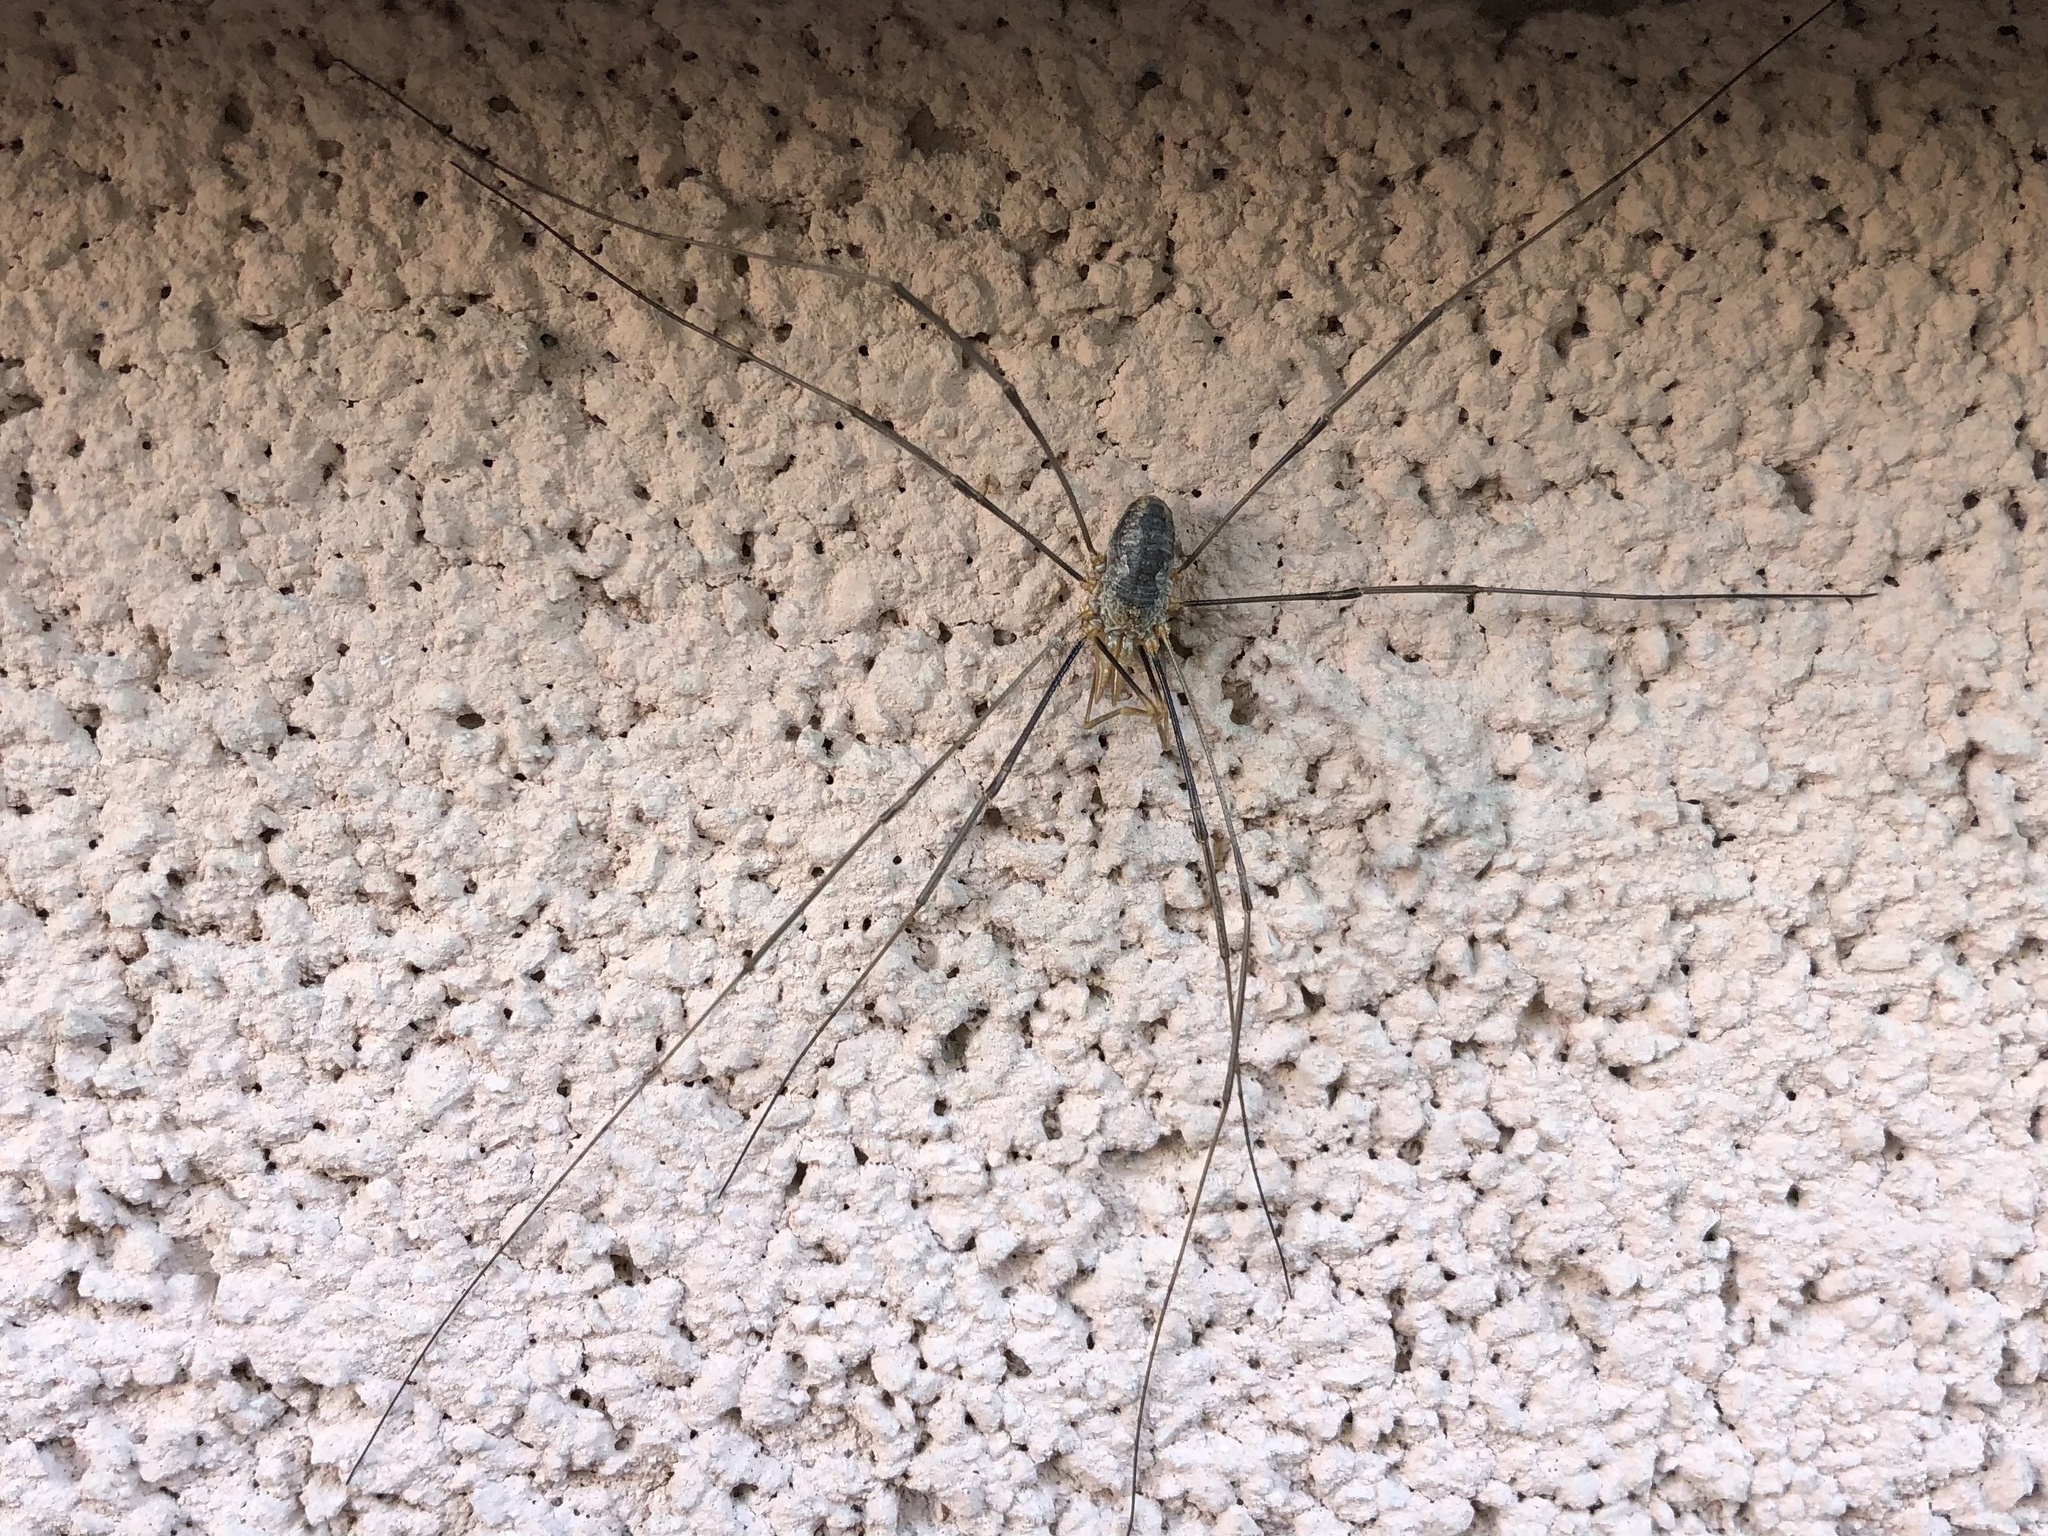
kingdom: Animalia
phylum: Arthropoda
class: Arachnida
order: Opiliones
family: Phalangiidae
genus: Phalangium
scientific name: Phalangium opilio
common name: Daddy longleg
